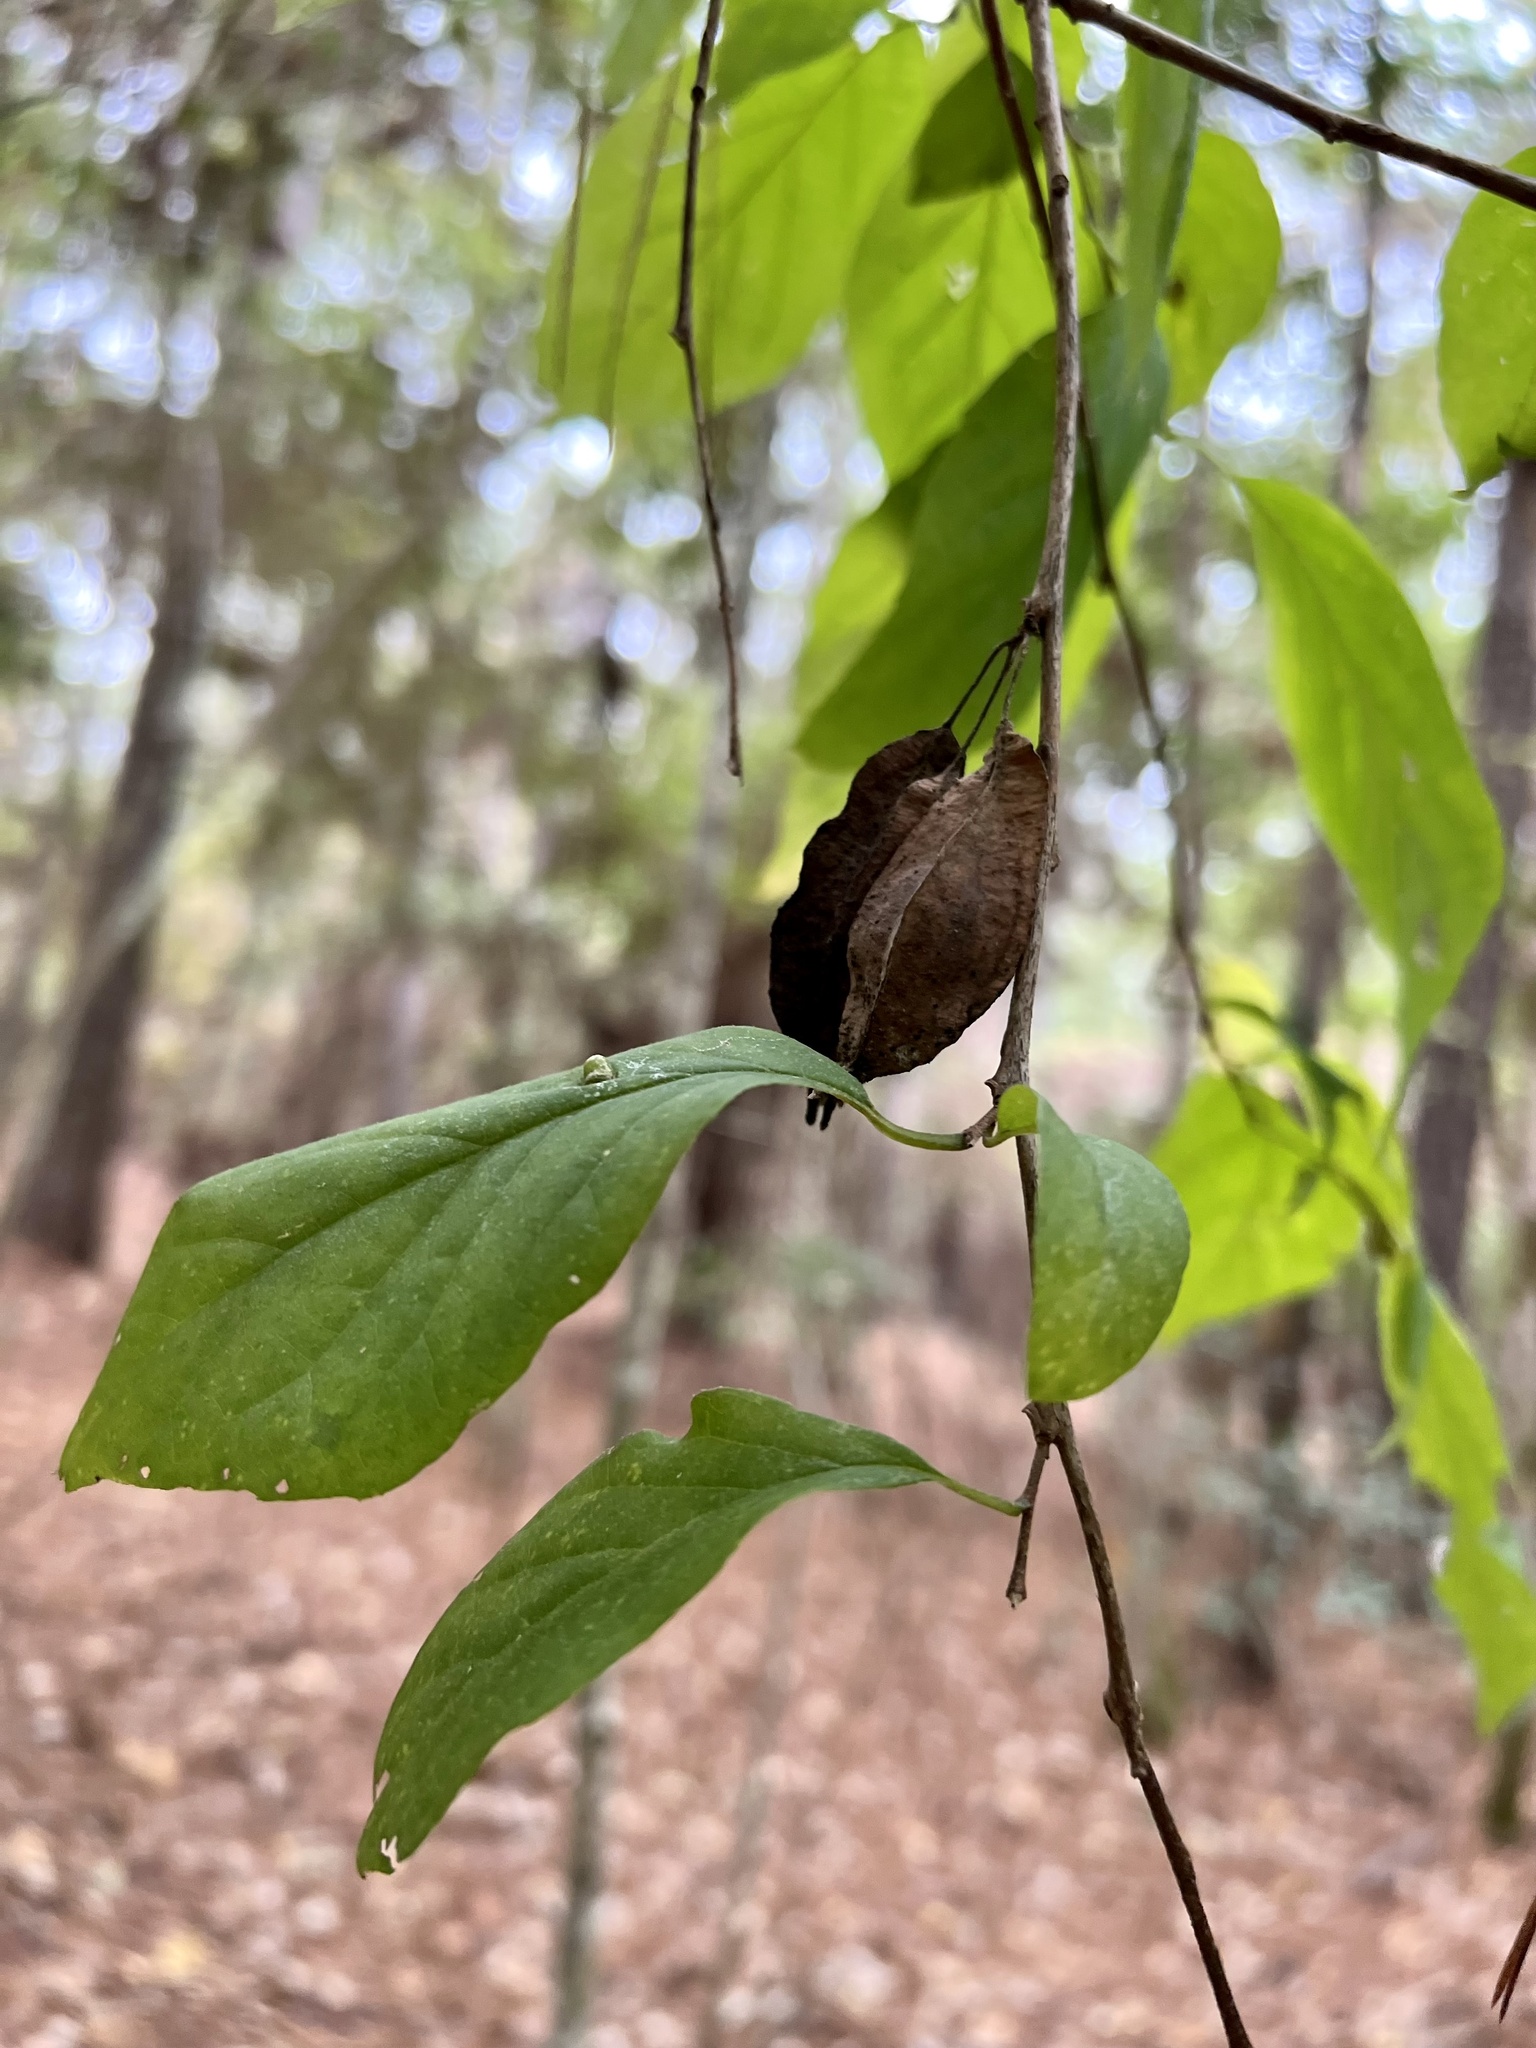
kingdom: Plantae
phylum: Tracheophyta
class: Magnoliopsida
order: Ericales
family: Styracaceae
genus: Halesia
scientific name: Halesia diptera
